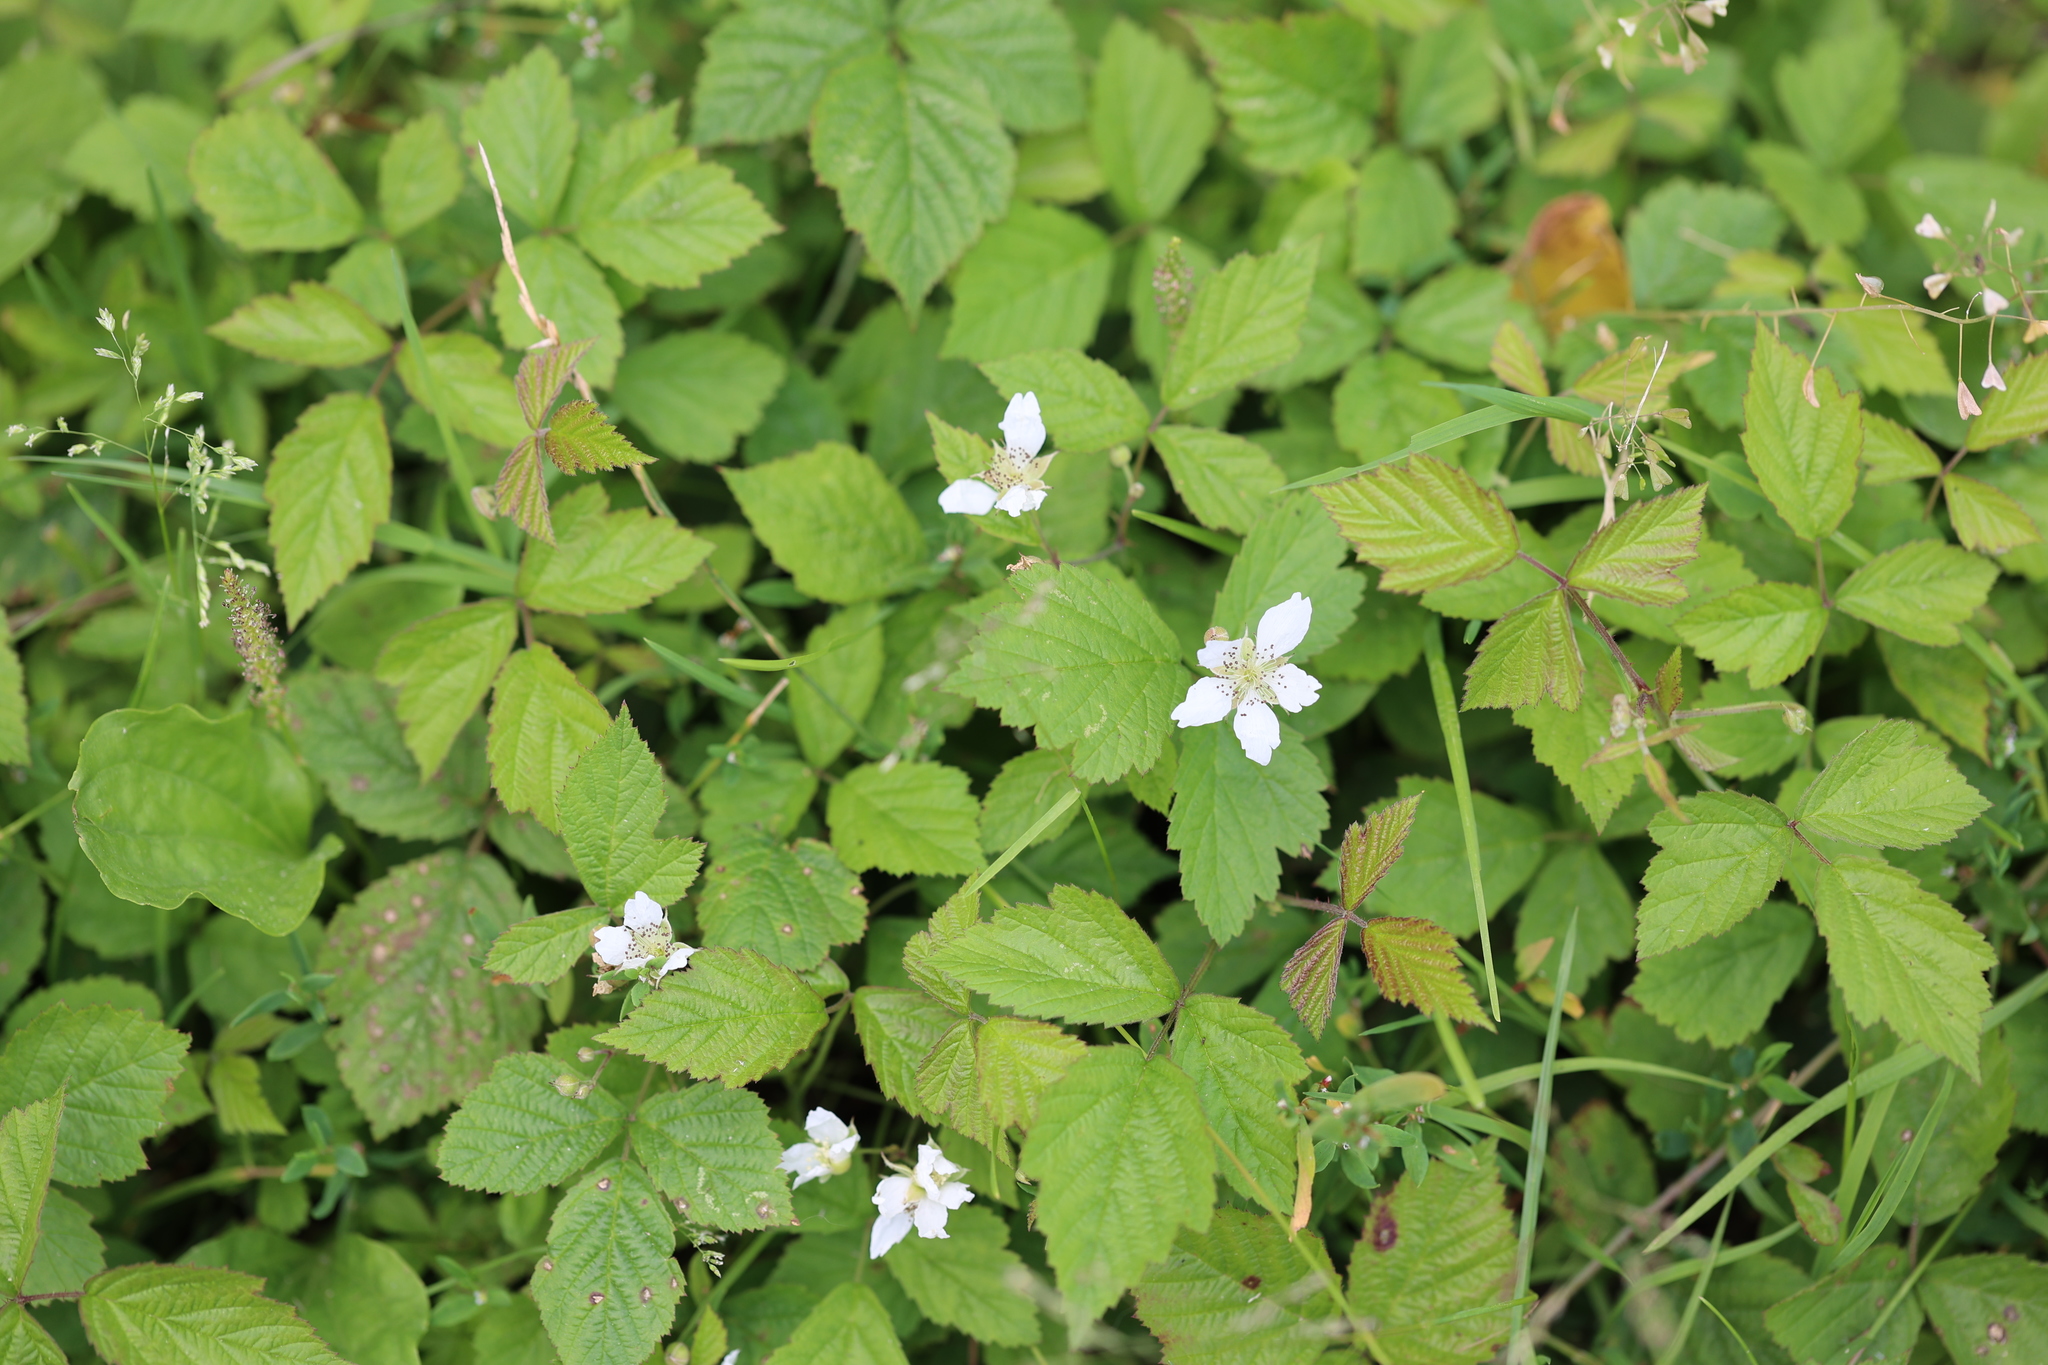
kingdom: Plantae
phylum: Tracheophyta
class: Magnoliopsida
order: Rosales
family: Rosaceae
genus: Rubus
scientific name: Rubus caesius
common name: Dewberry
